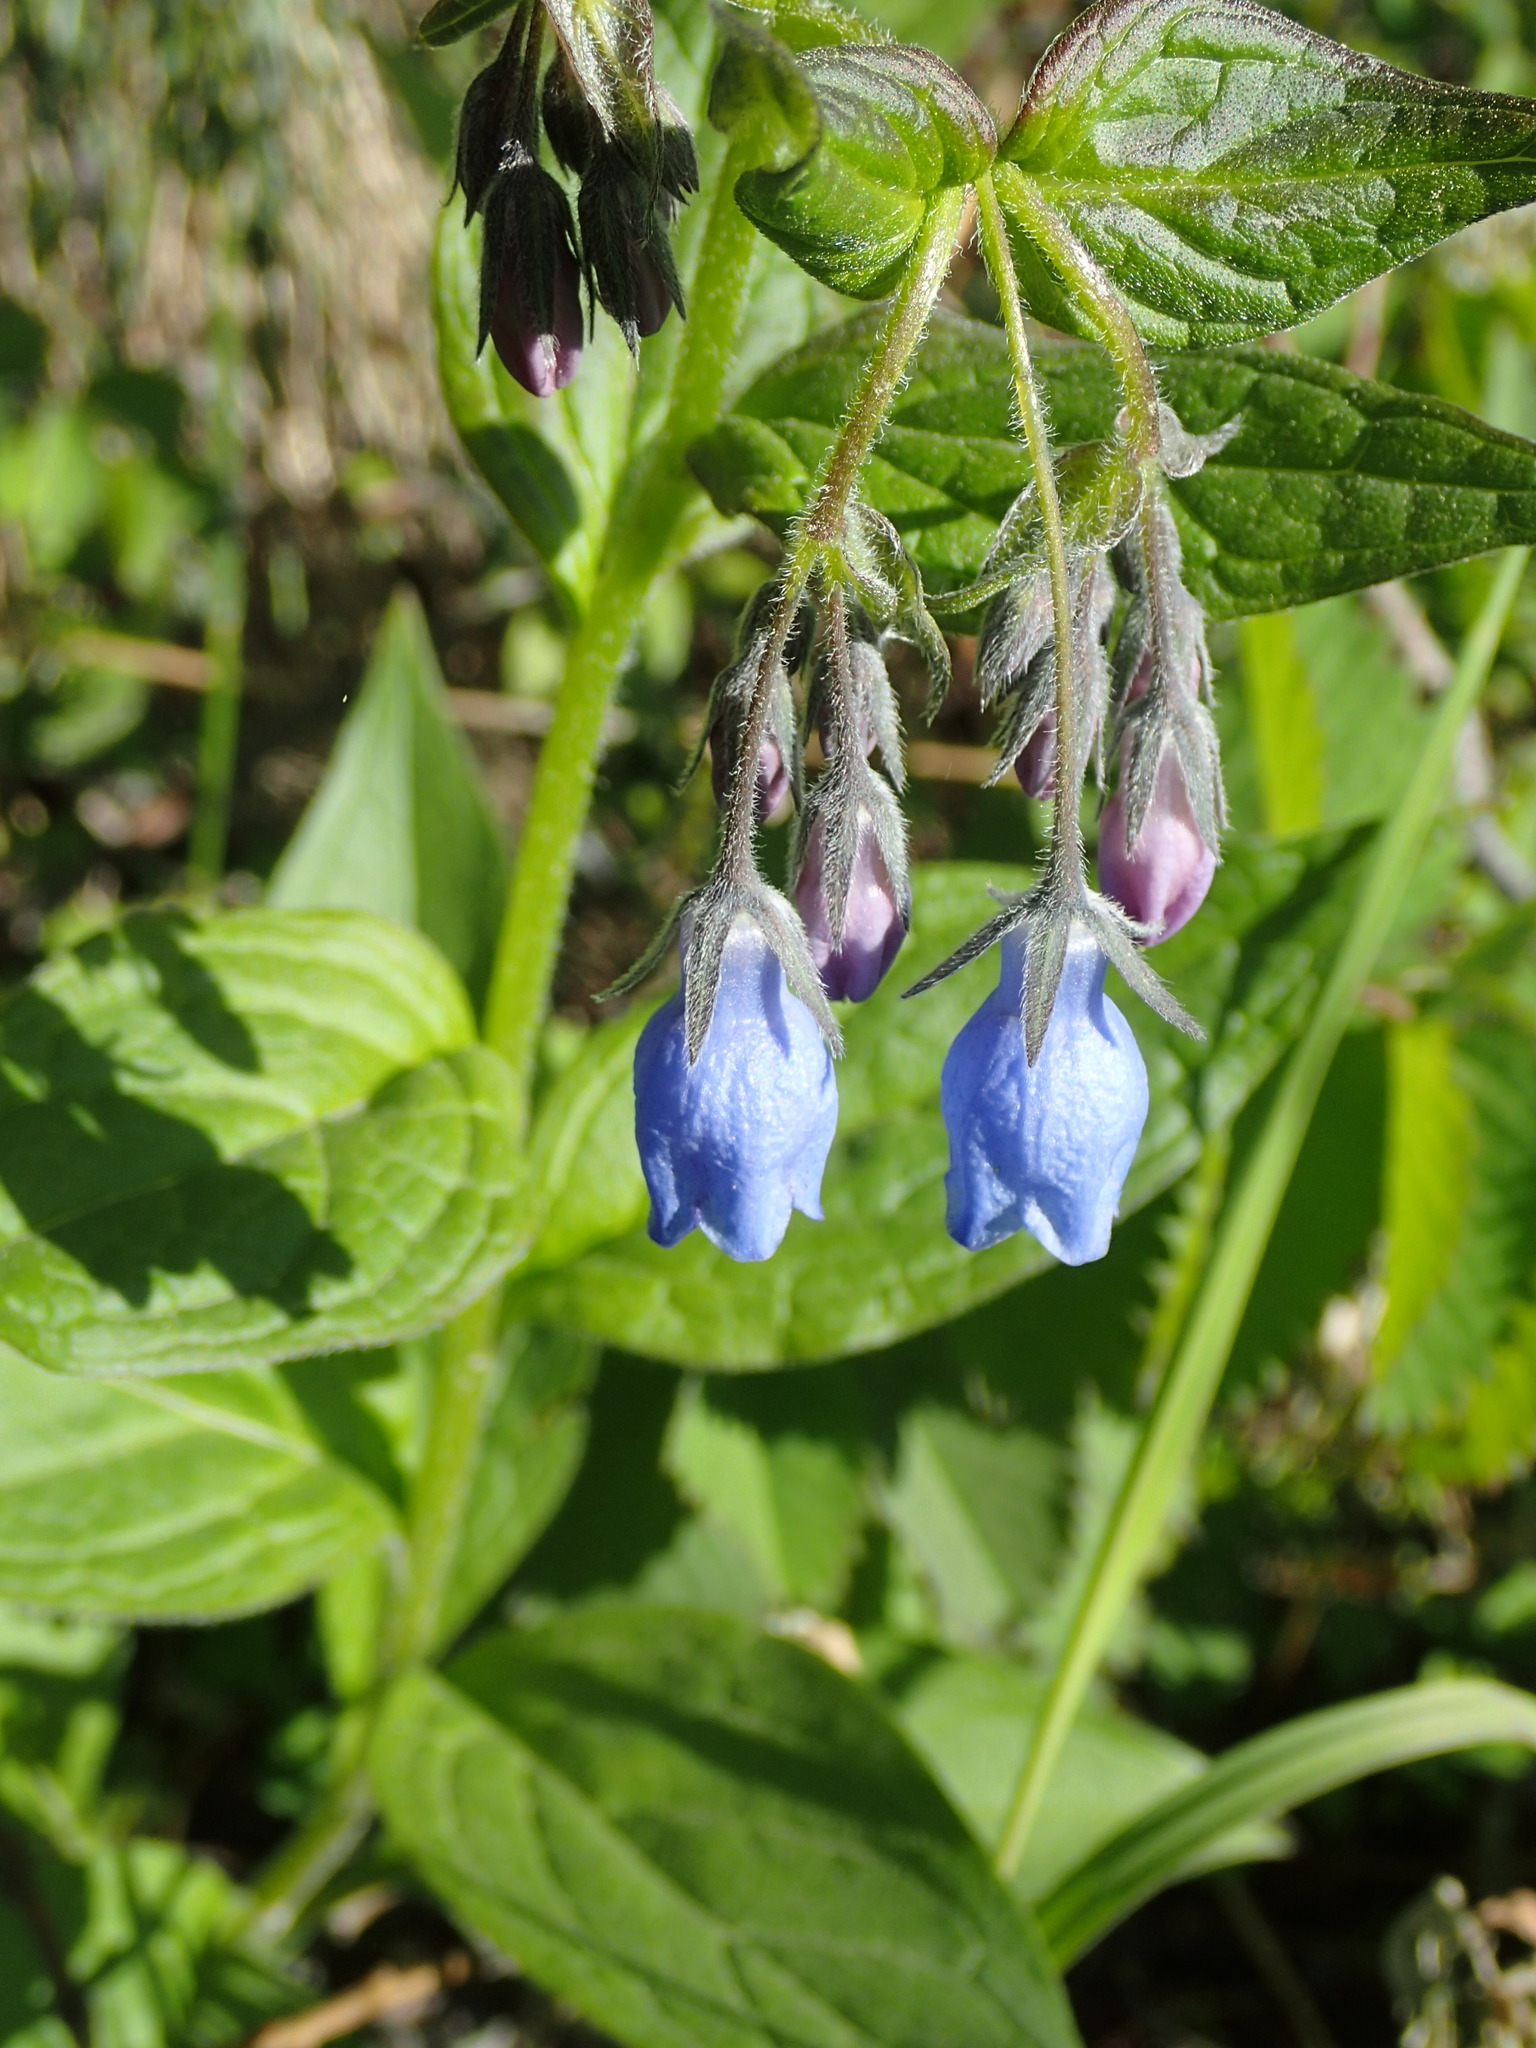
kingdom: Plantae
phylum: Tracheophyta
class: Magnoliopsida
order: Boraginales
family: Boraginaceae
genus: Mertensia
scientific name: Mertensia paniculata
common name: Panicled bluebells
